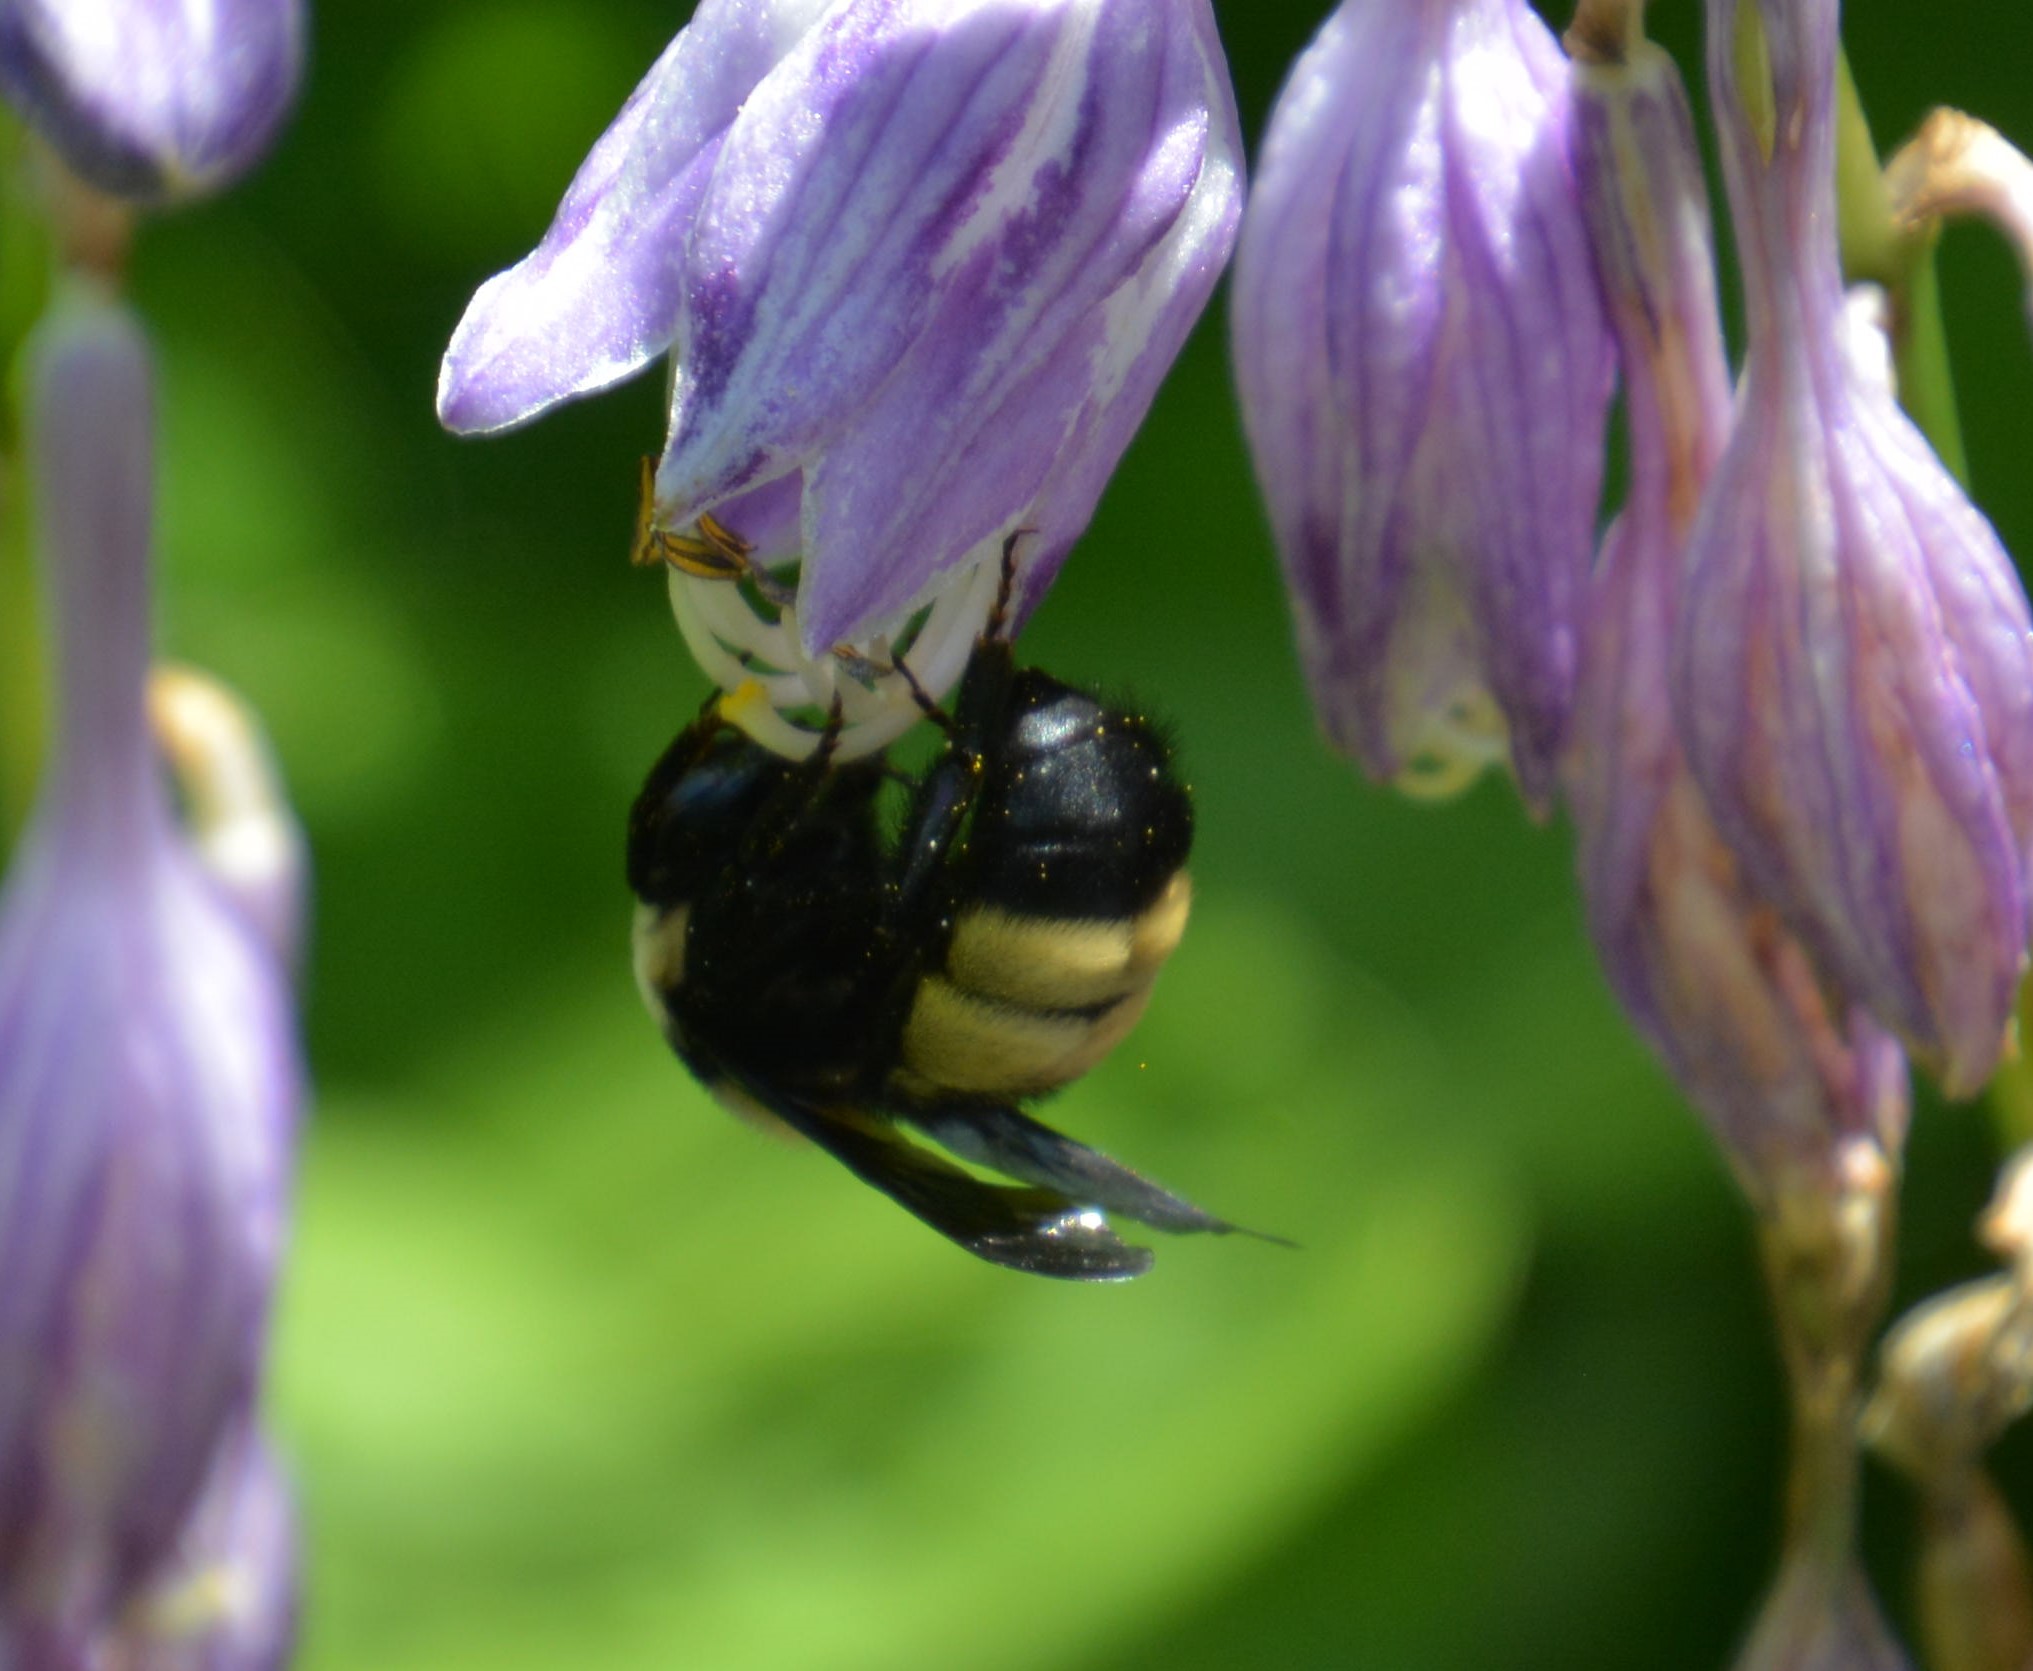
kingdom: Animalia
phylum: Arthropoda
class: Insecta
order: Hymenoptera
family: Apidae
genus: Bombus
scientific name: Bombus auricomus
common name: Black and gold bumble bee
